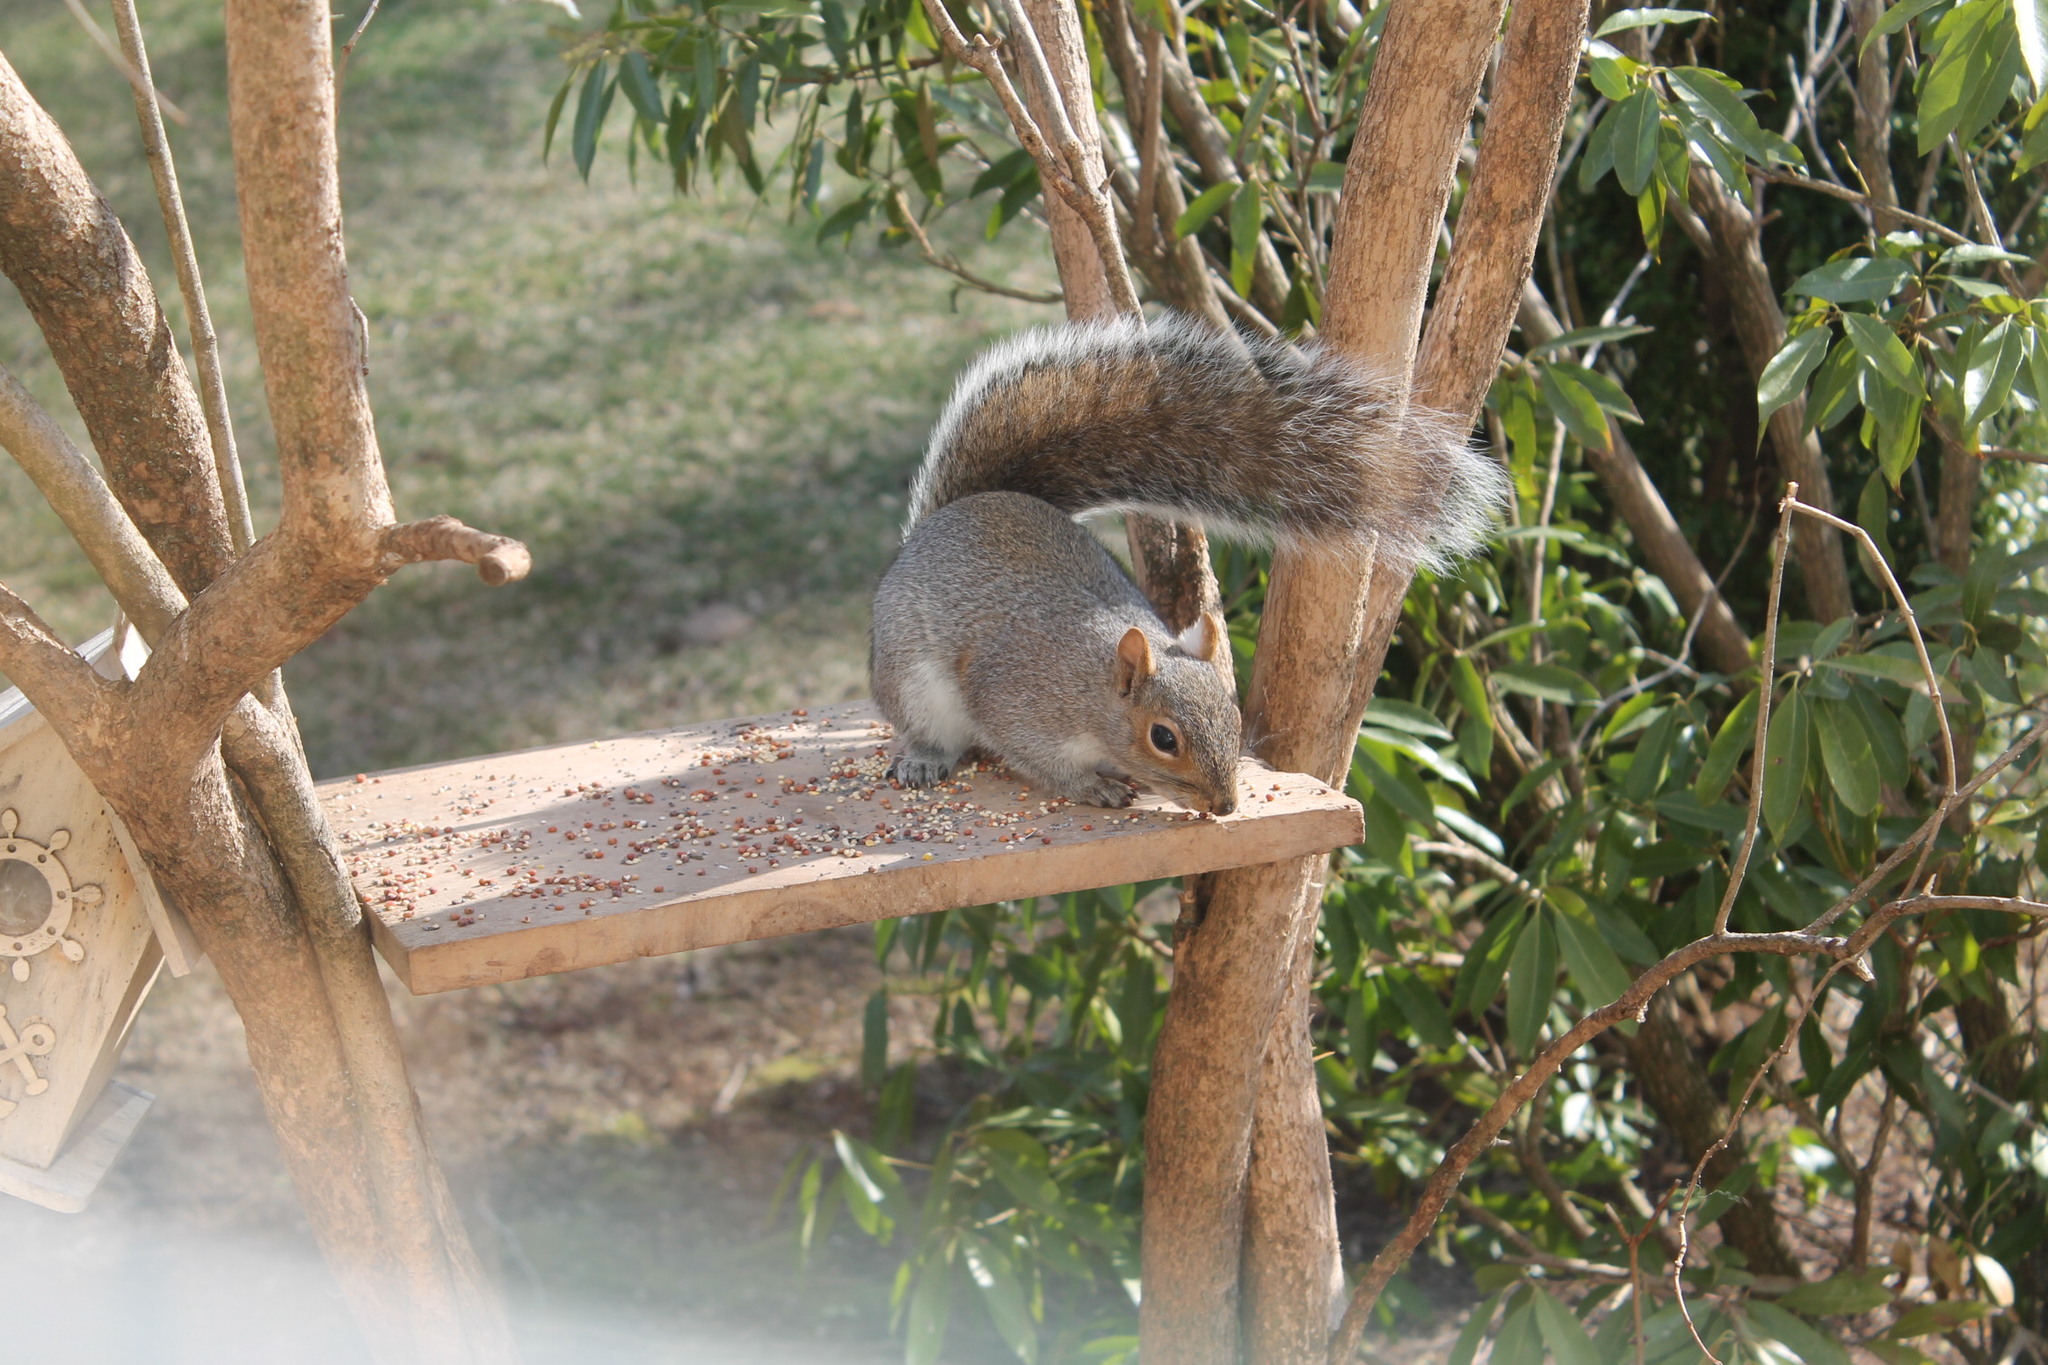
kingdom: Animalia
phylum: Chordata
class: Mammalia
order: Rodentia
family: Sciuridae
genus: Sciurus
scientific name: Sciurus carolinensis
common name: Eastern gray squirrel
